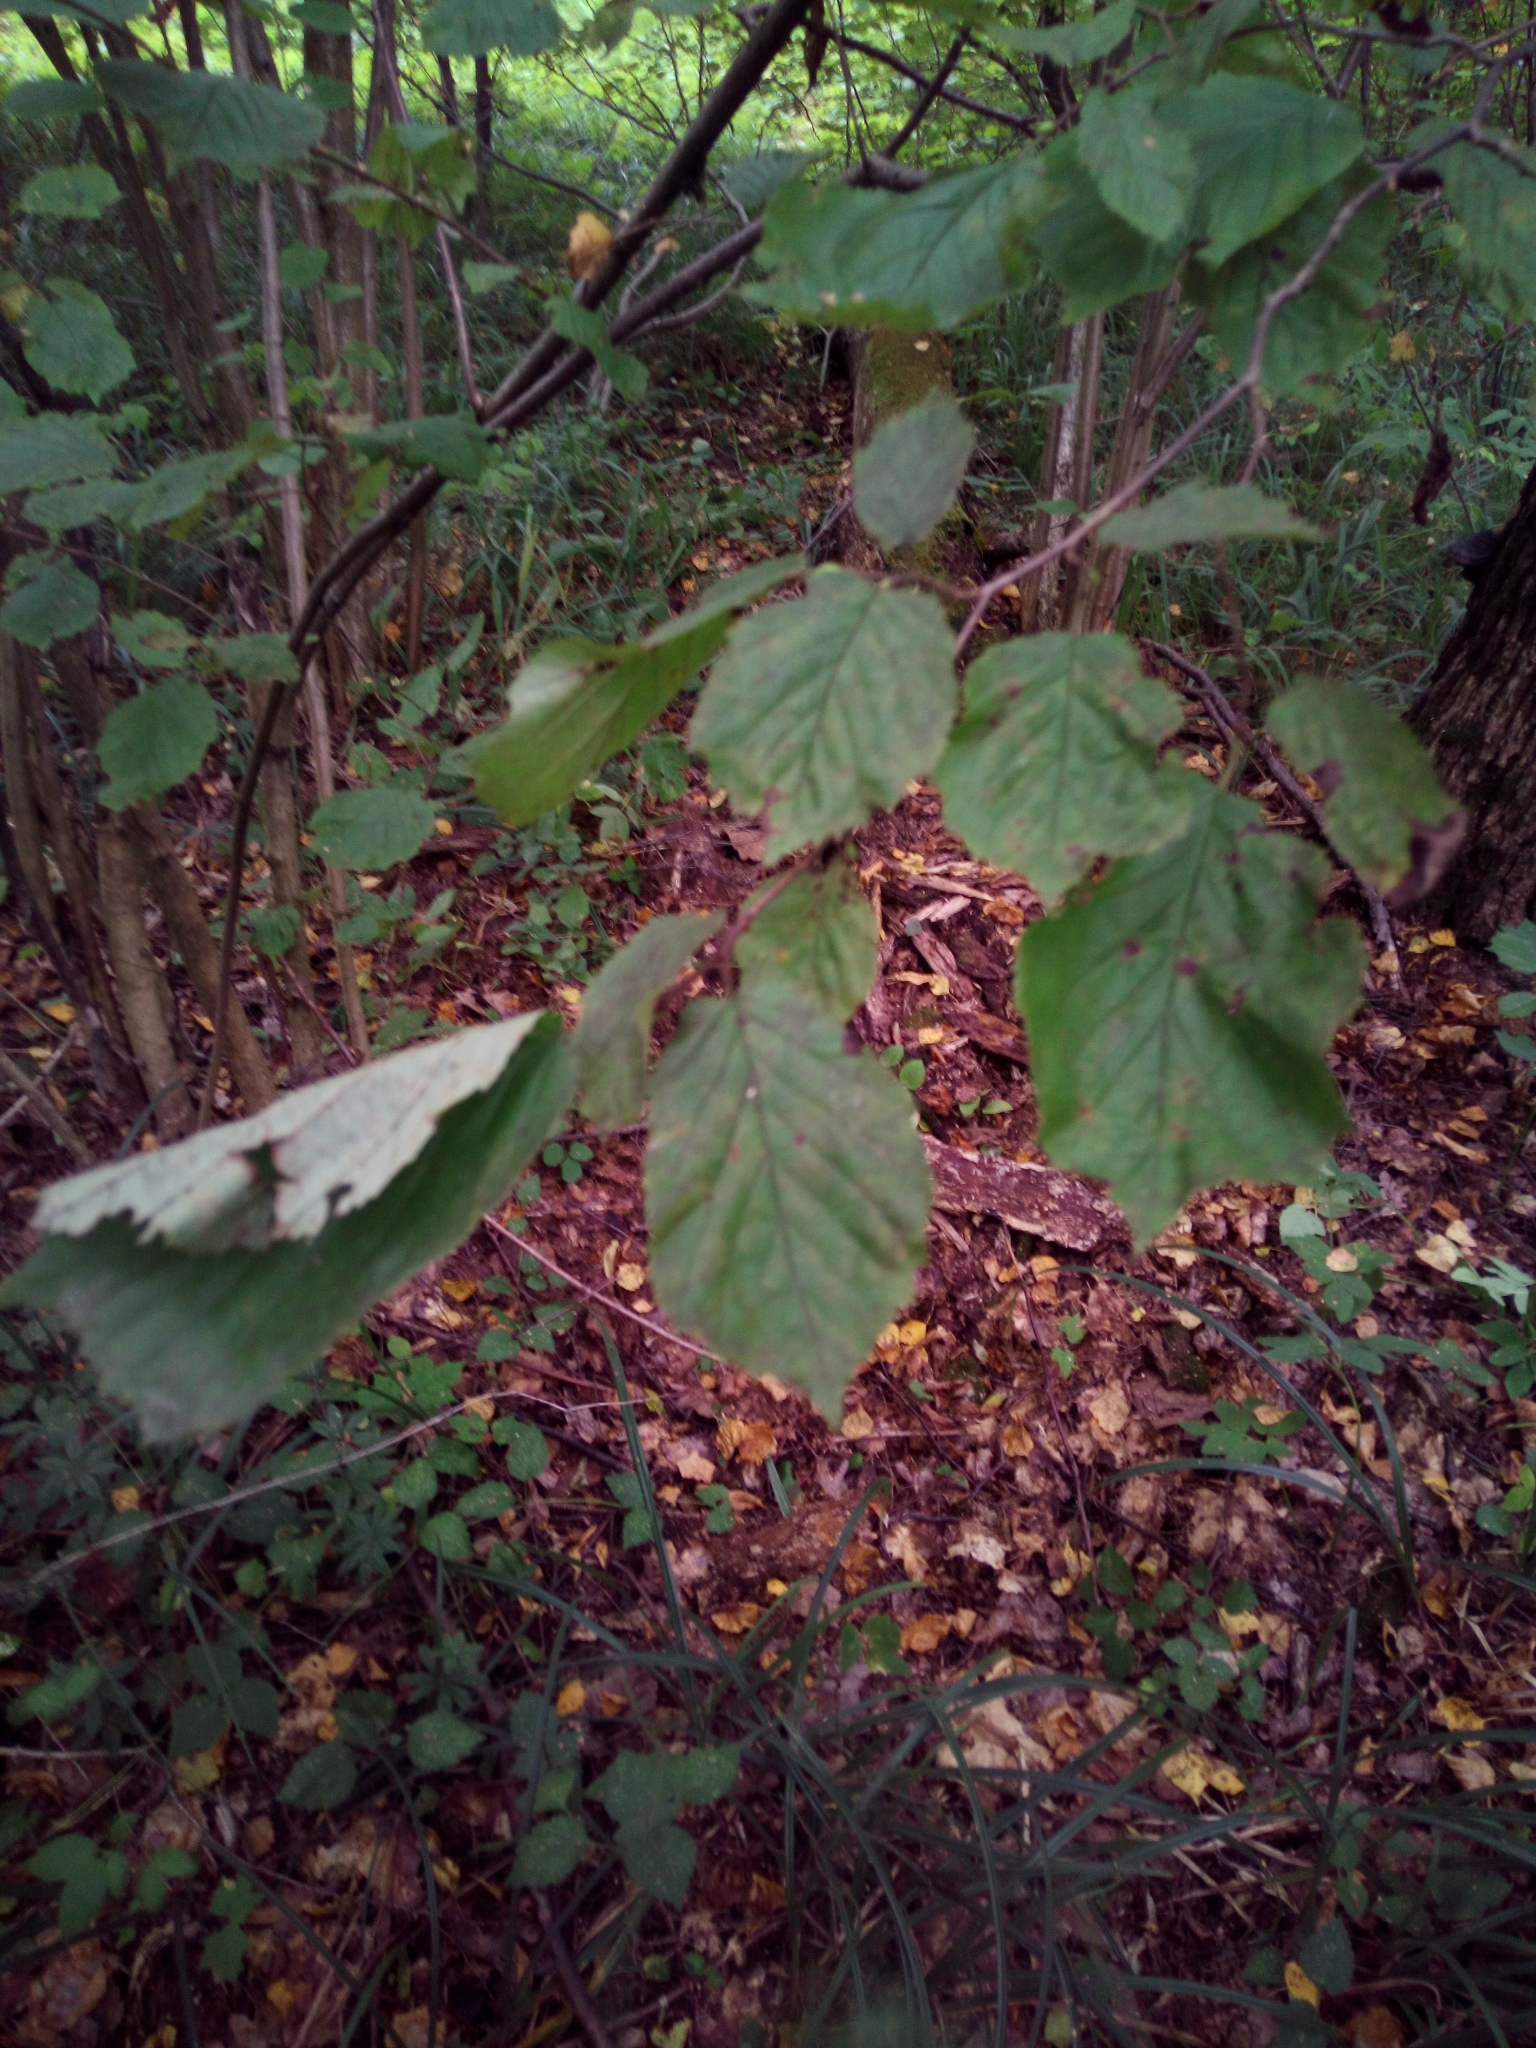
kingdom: Plantae
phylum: Tracheophyta
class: Magnoliopsida
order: Fagales
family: Betulaceae
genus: Corylus
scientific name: Corylus avellana
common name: European hazel
